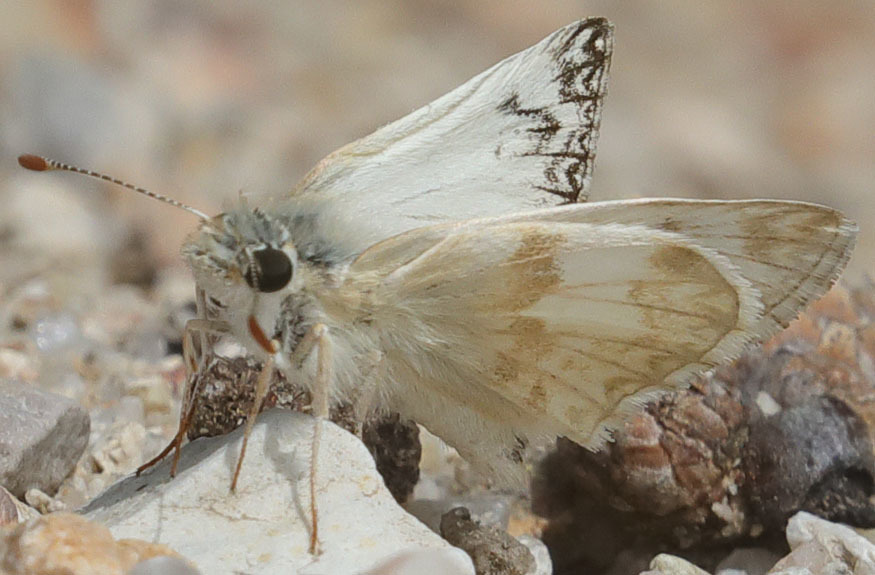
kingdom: Animalia
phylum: Arthropoda
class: Insecta
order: Lepidoptera
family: Hesperiidae
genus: Heliopetes
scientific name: Heliopetes ericetorum
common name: Northern white-skipper
